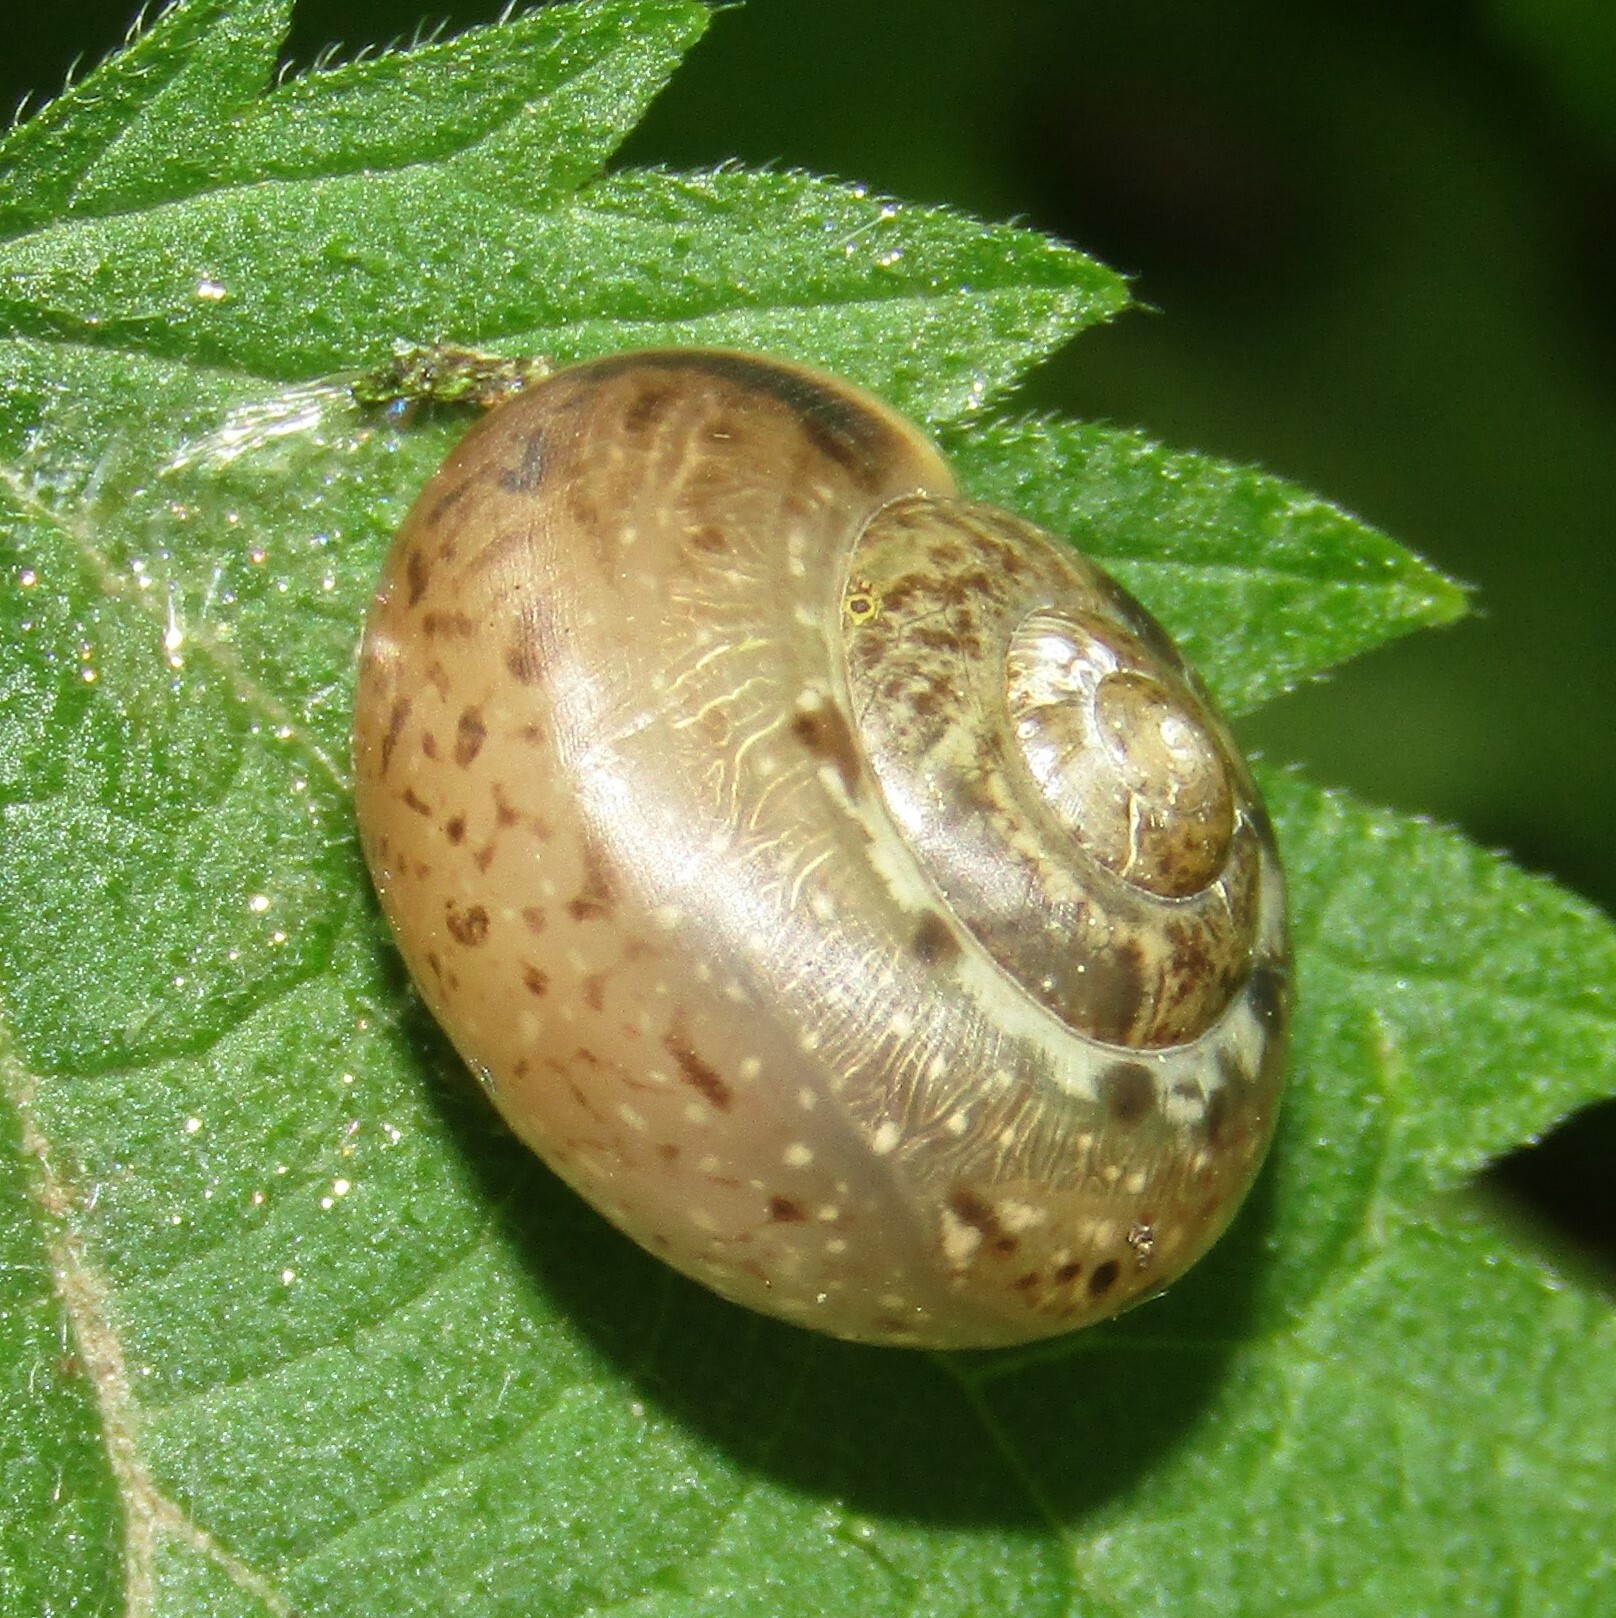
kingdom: Animalia
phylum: Mollusca
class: Gastropoda
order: Stylommatophora
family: Camaenidae
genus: Fruticicola
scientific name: Fruticicola fruticum
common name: Bush snail
